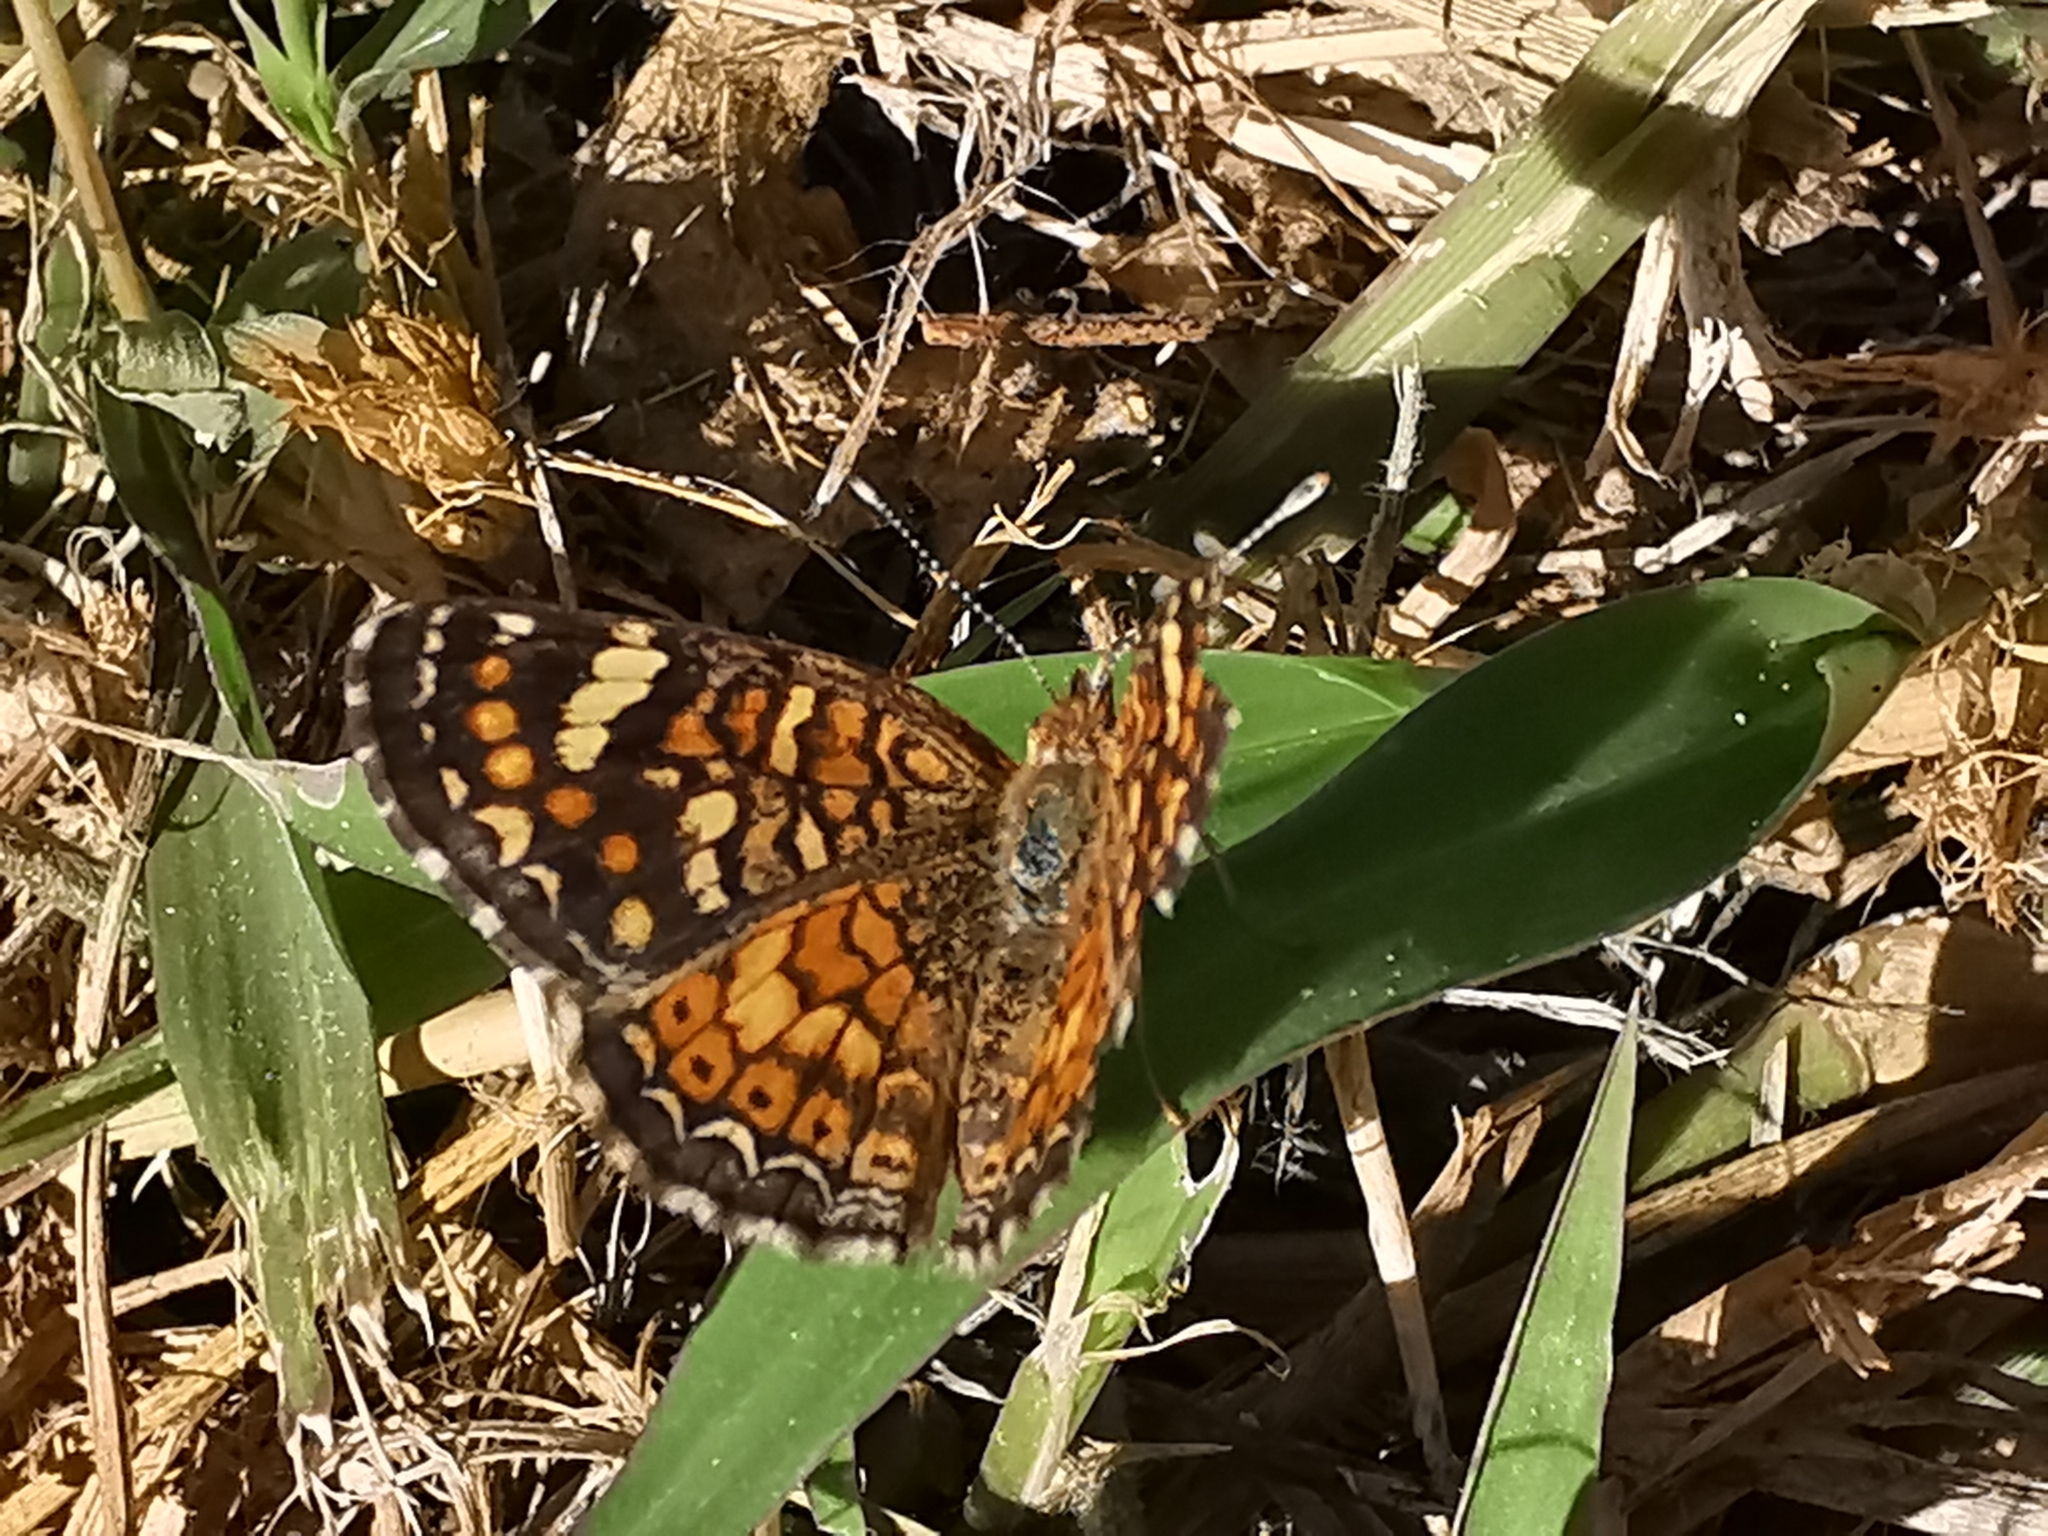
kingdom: Animalia
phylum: Arthropoda
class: Insecta
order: Lepidoptera
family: Nymphalidae
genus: Phyciodes
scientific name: Phyciodes picta
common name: Painted crescent
